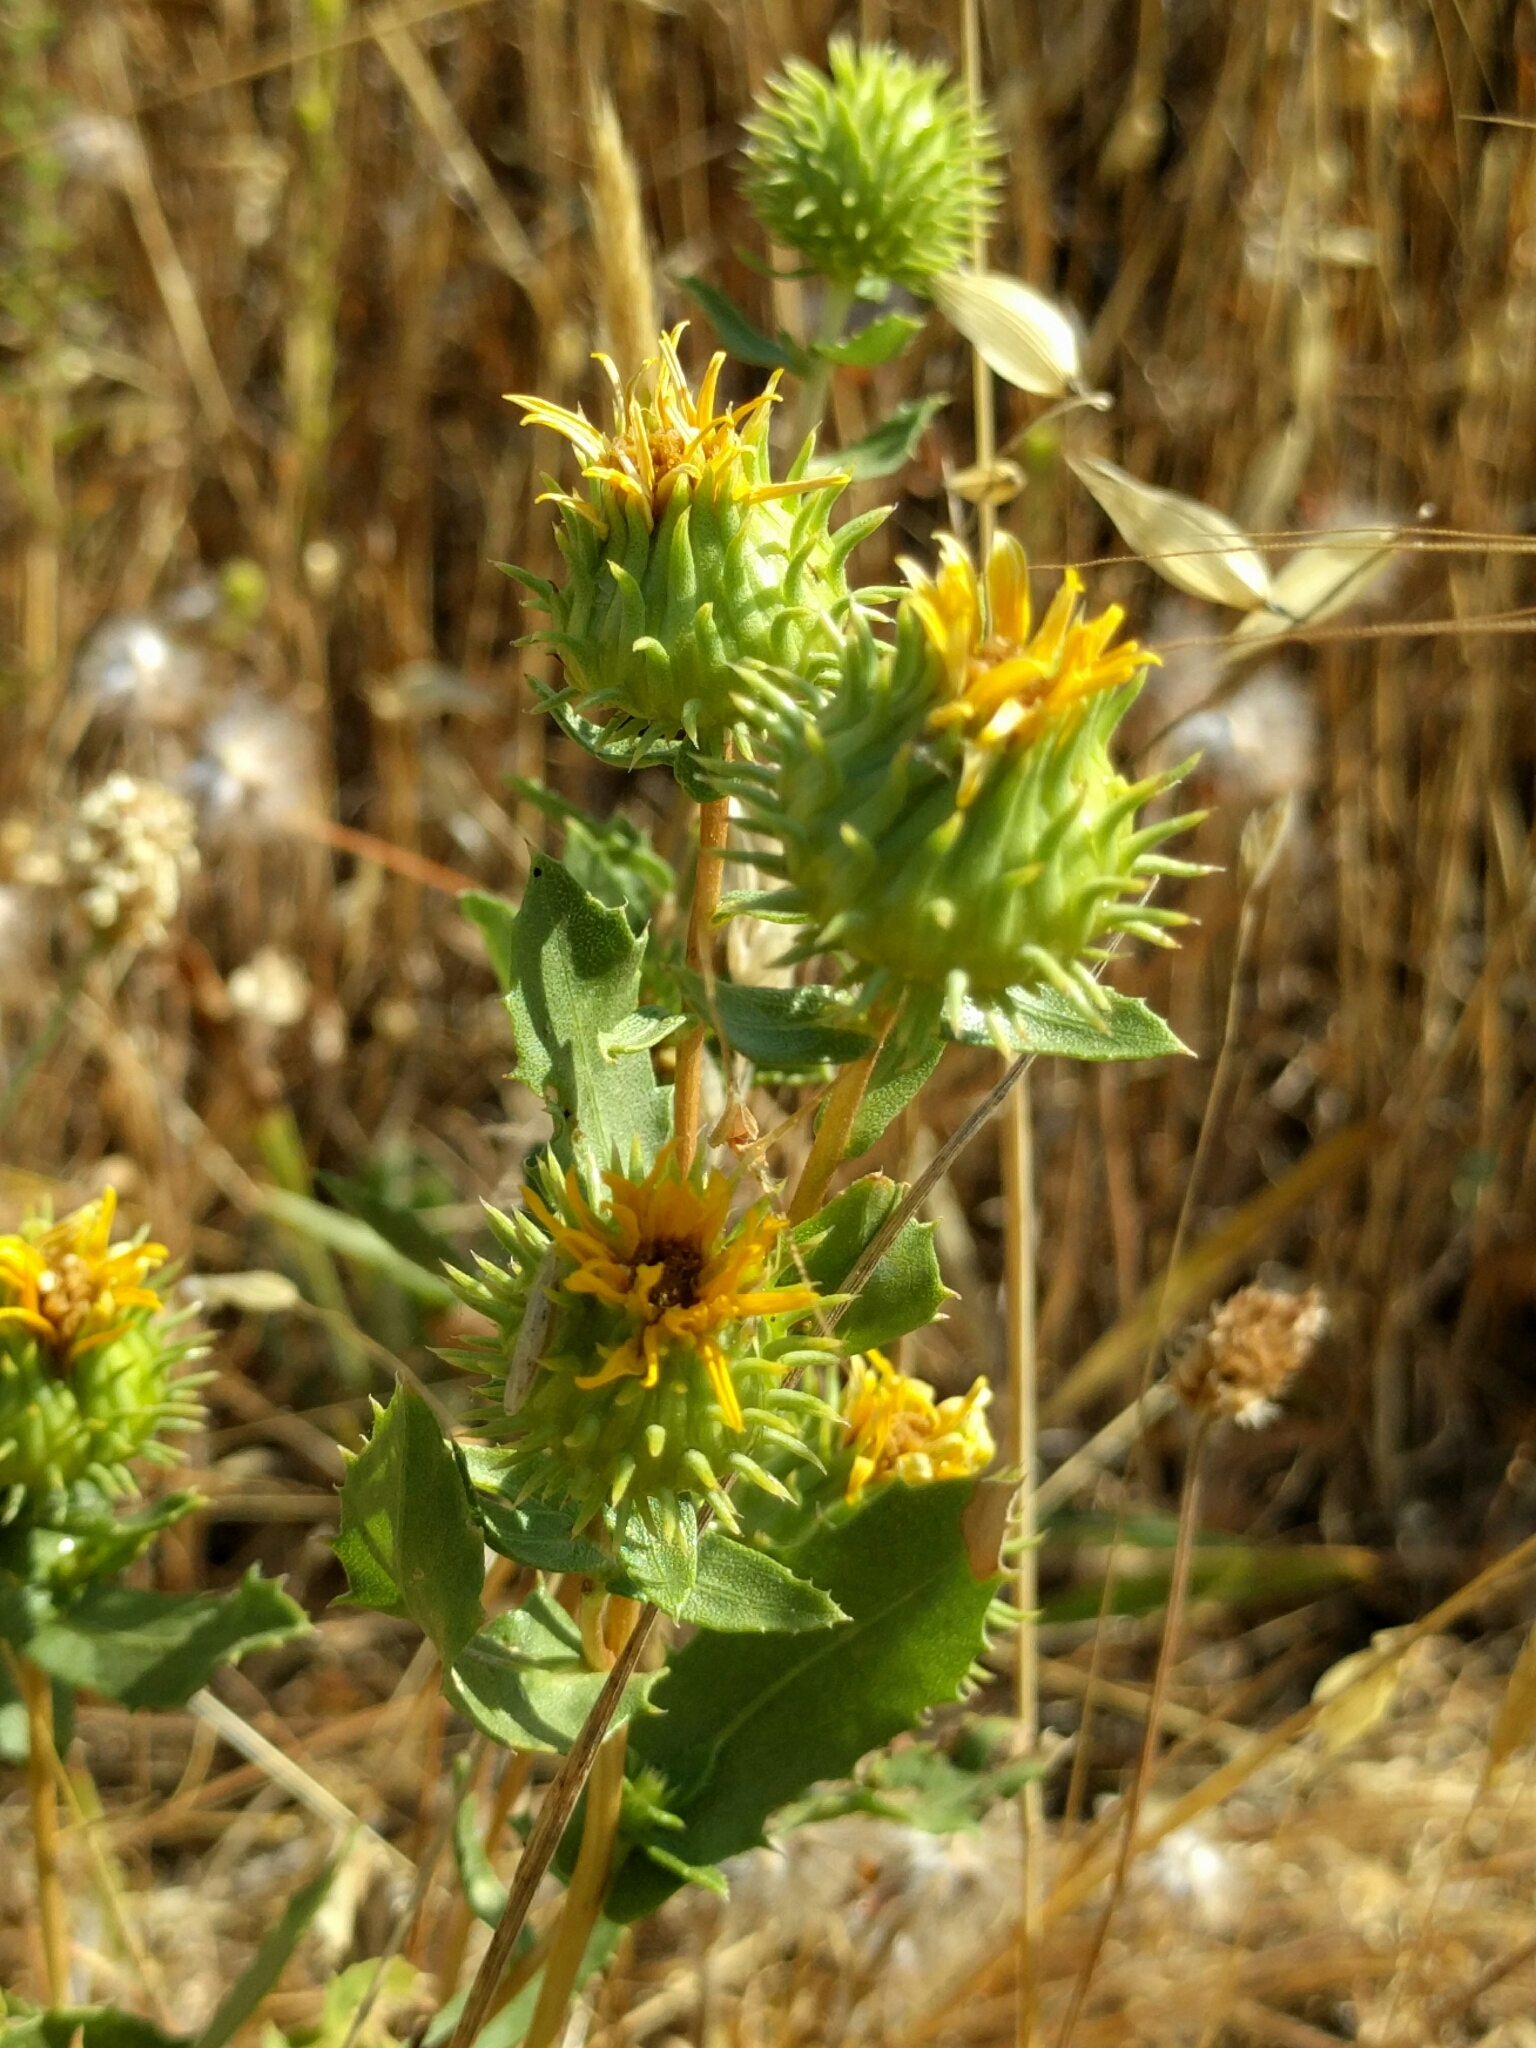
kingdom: Plantae
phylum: Tracheophyta
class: Magnoliopsida
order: Asterales
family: Asteraceae
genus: Grindelia
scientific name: Grindelia hirsutula
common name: Hairy gumweed
